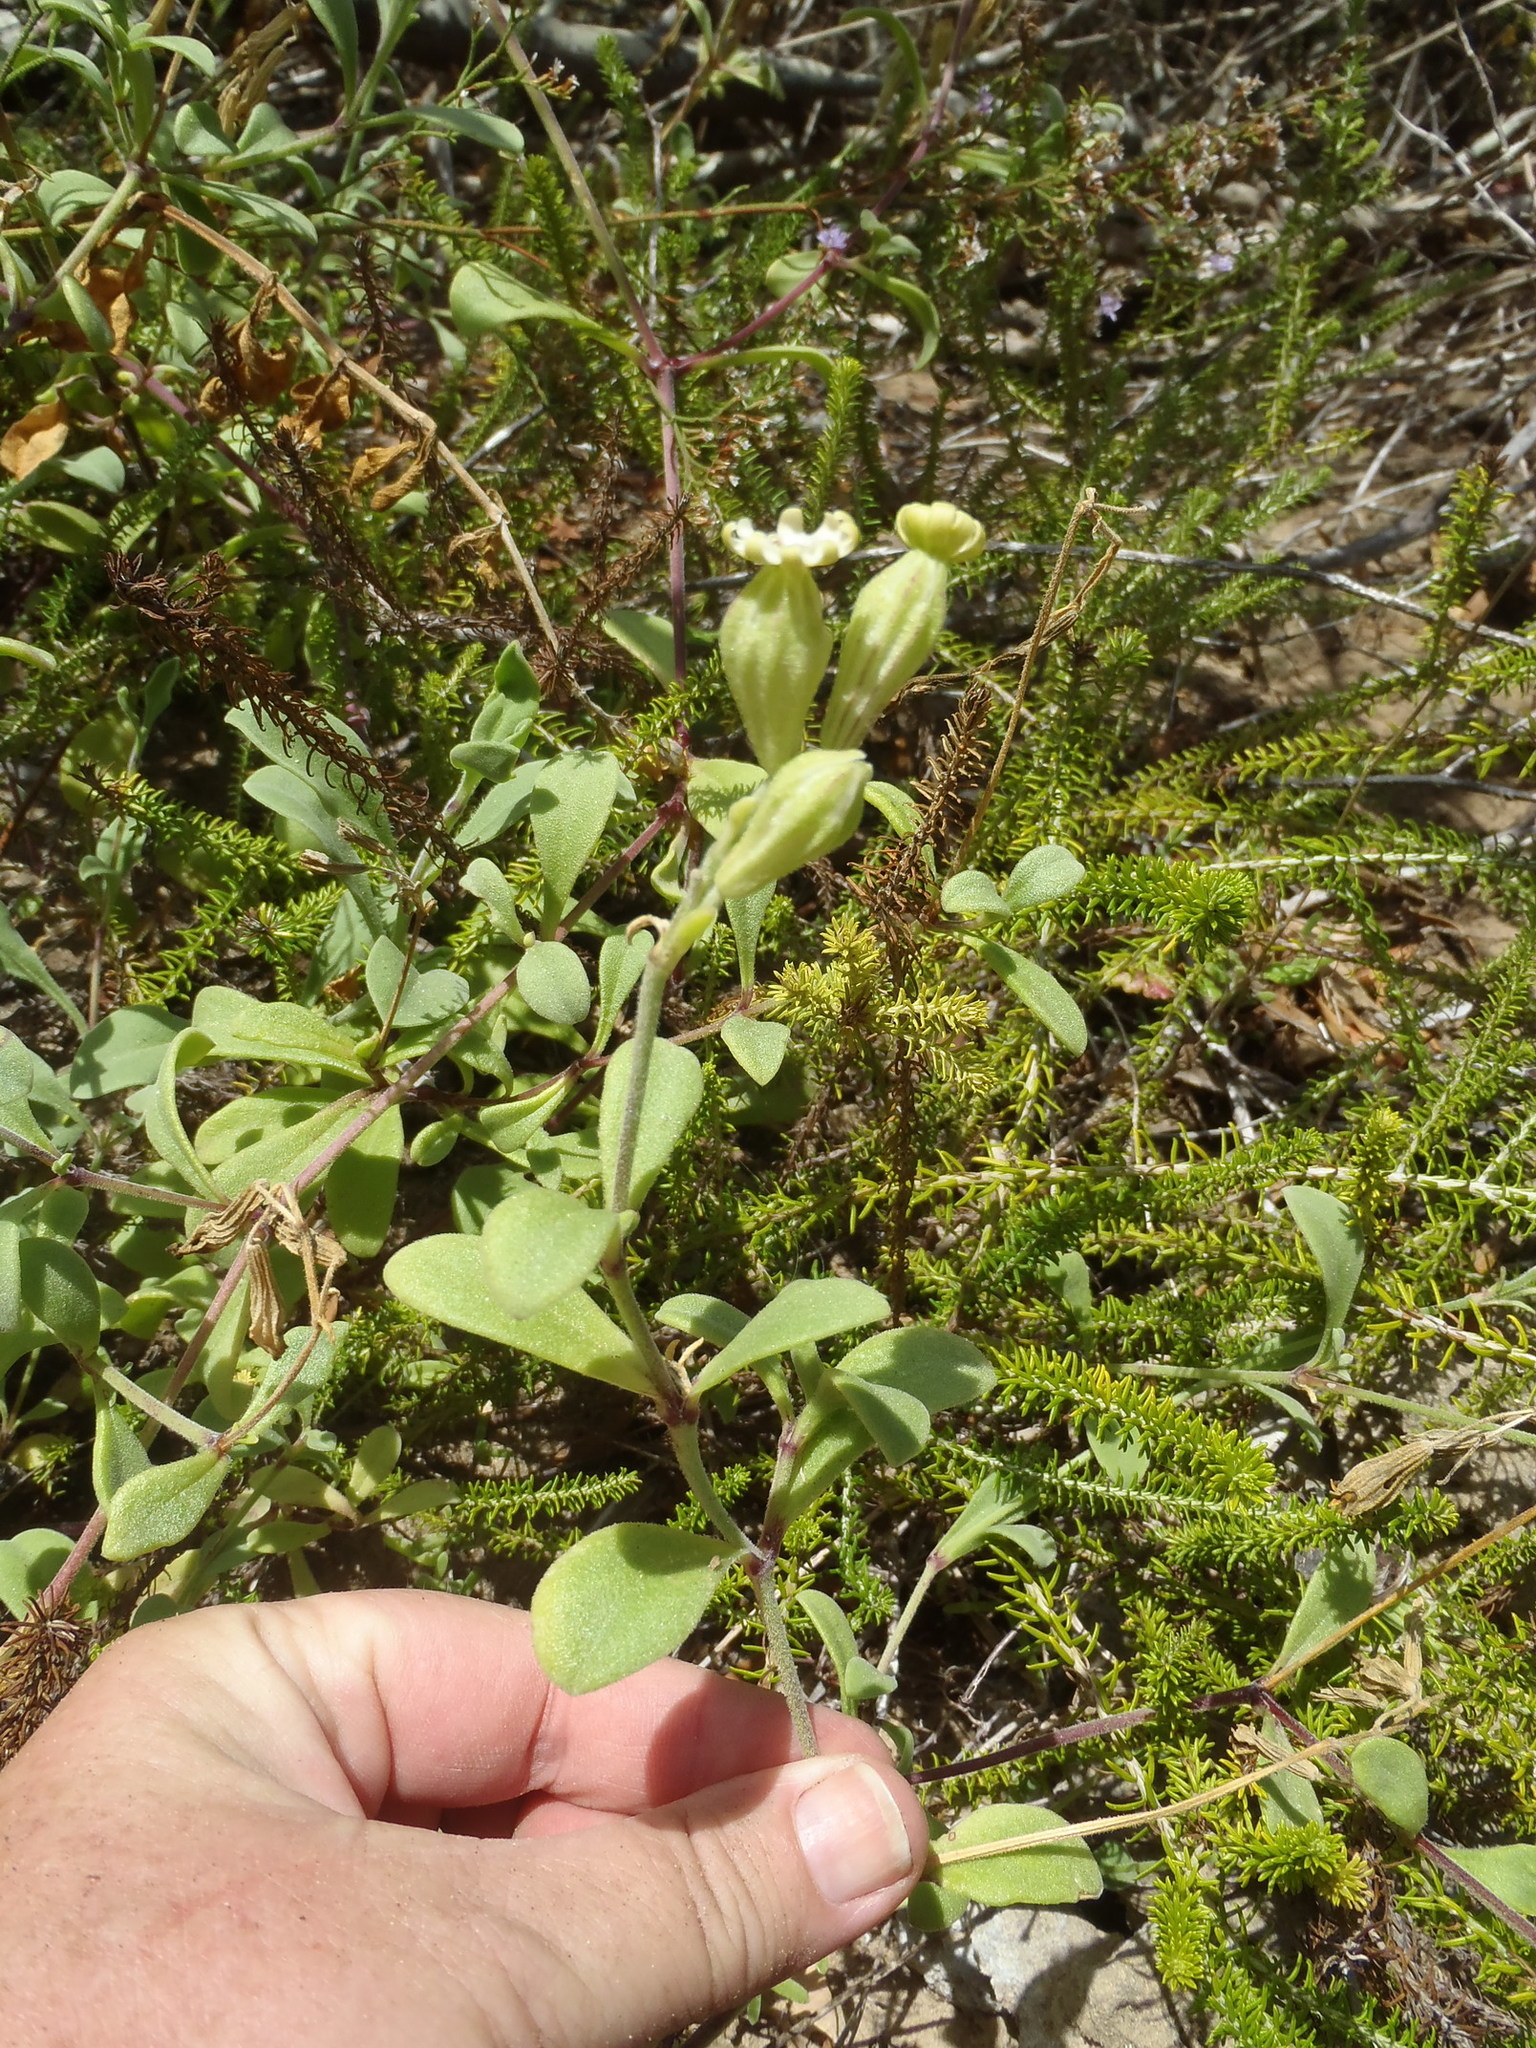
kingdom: Plantae
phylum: Tracheophyta
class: Magnoliopsida
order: Caryophyllales
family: Caryophyllaceae
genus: Silene
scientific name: Silene crassifolia
